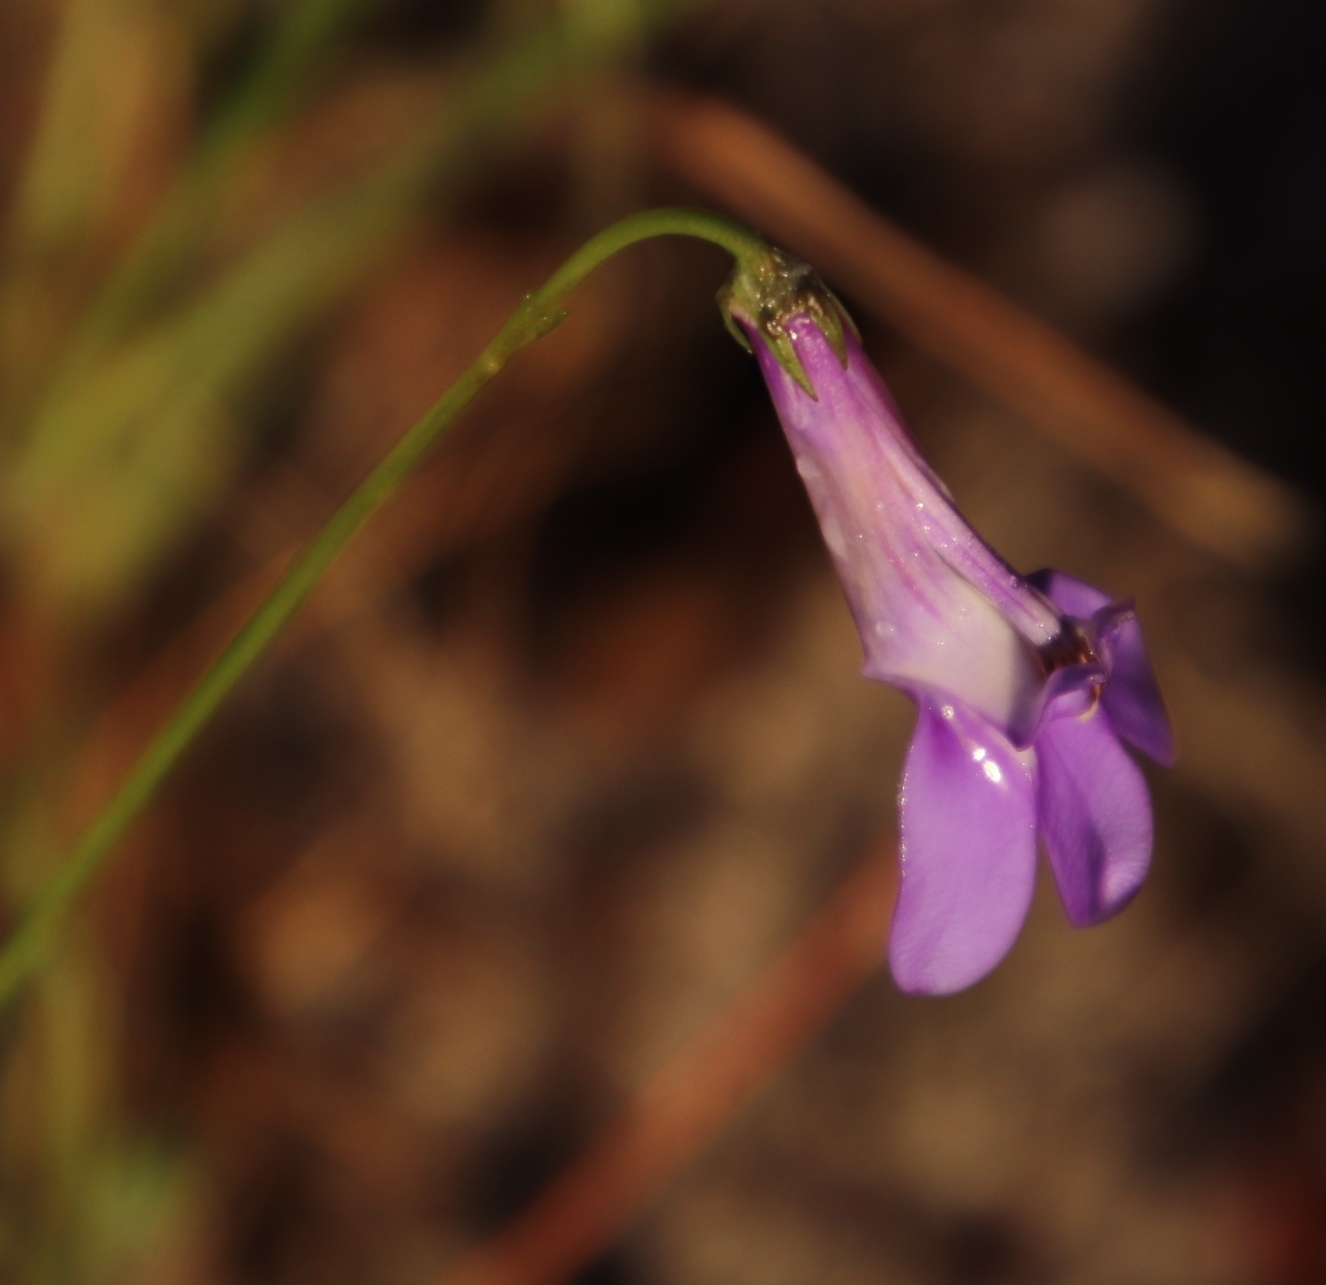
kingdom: Plantae
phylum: Tracheophyta
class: Magnoliopsida
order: Asterales
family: Campanulaceae
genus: Lobelia
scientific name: Lobelia coronopifolia
